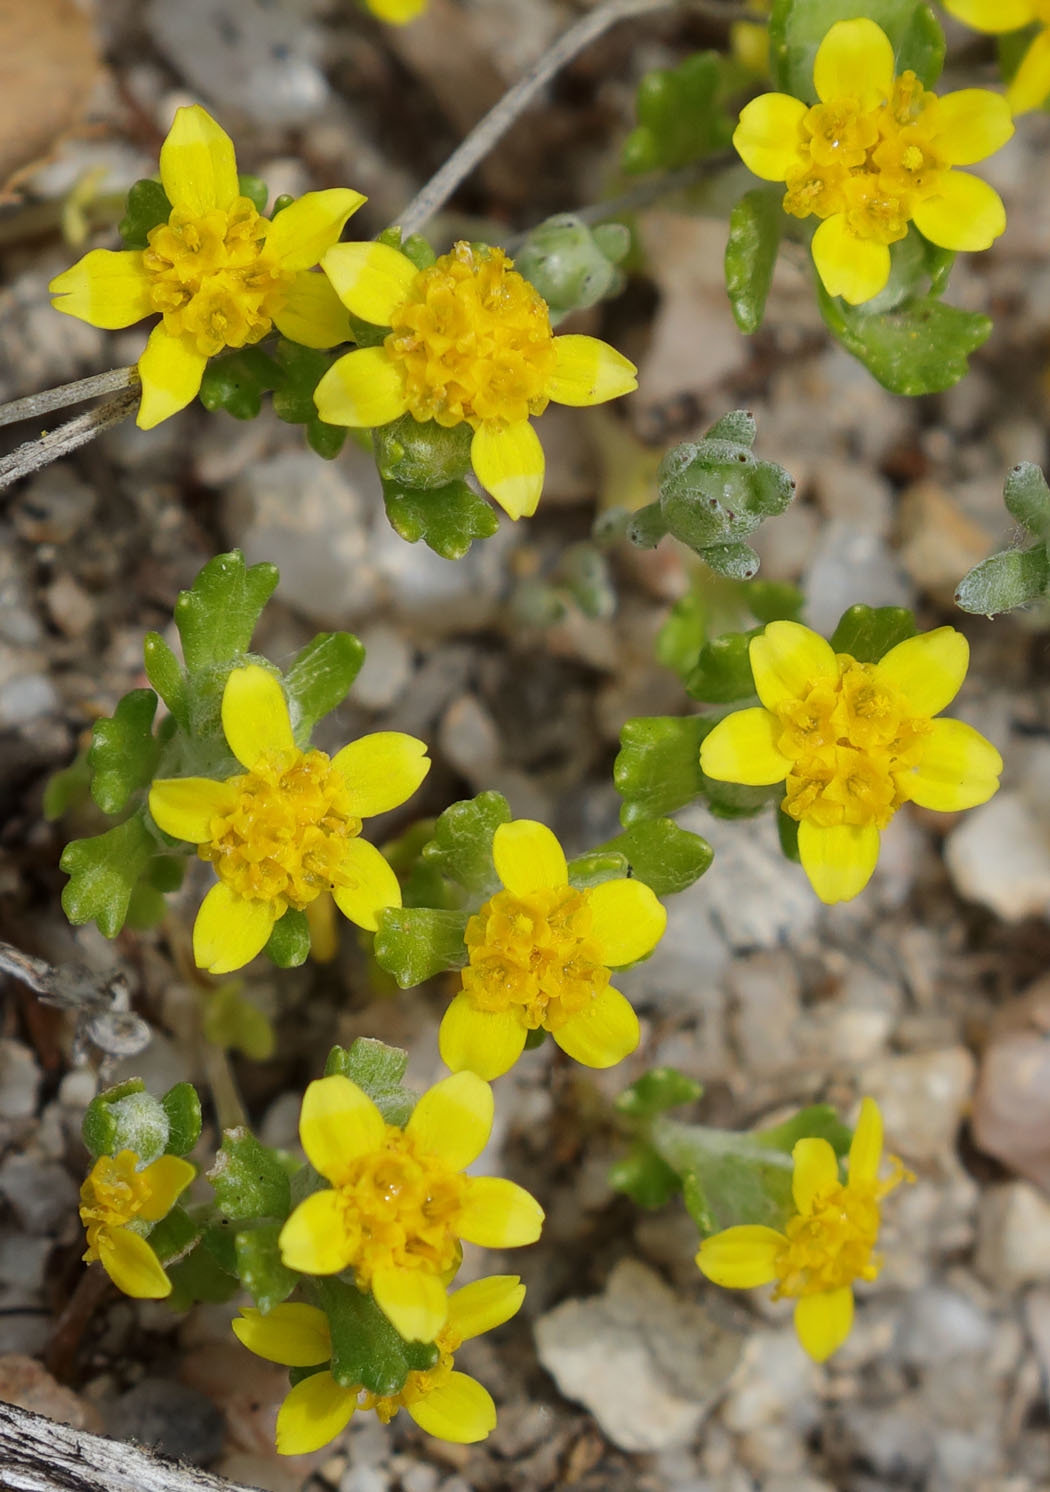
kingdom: Plantae
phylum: Tracheophyta
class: Magnoliopsida
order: Asterales
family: Asteraceae
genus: Eriophyllum
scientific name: Eriophyllum multicaule
